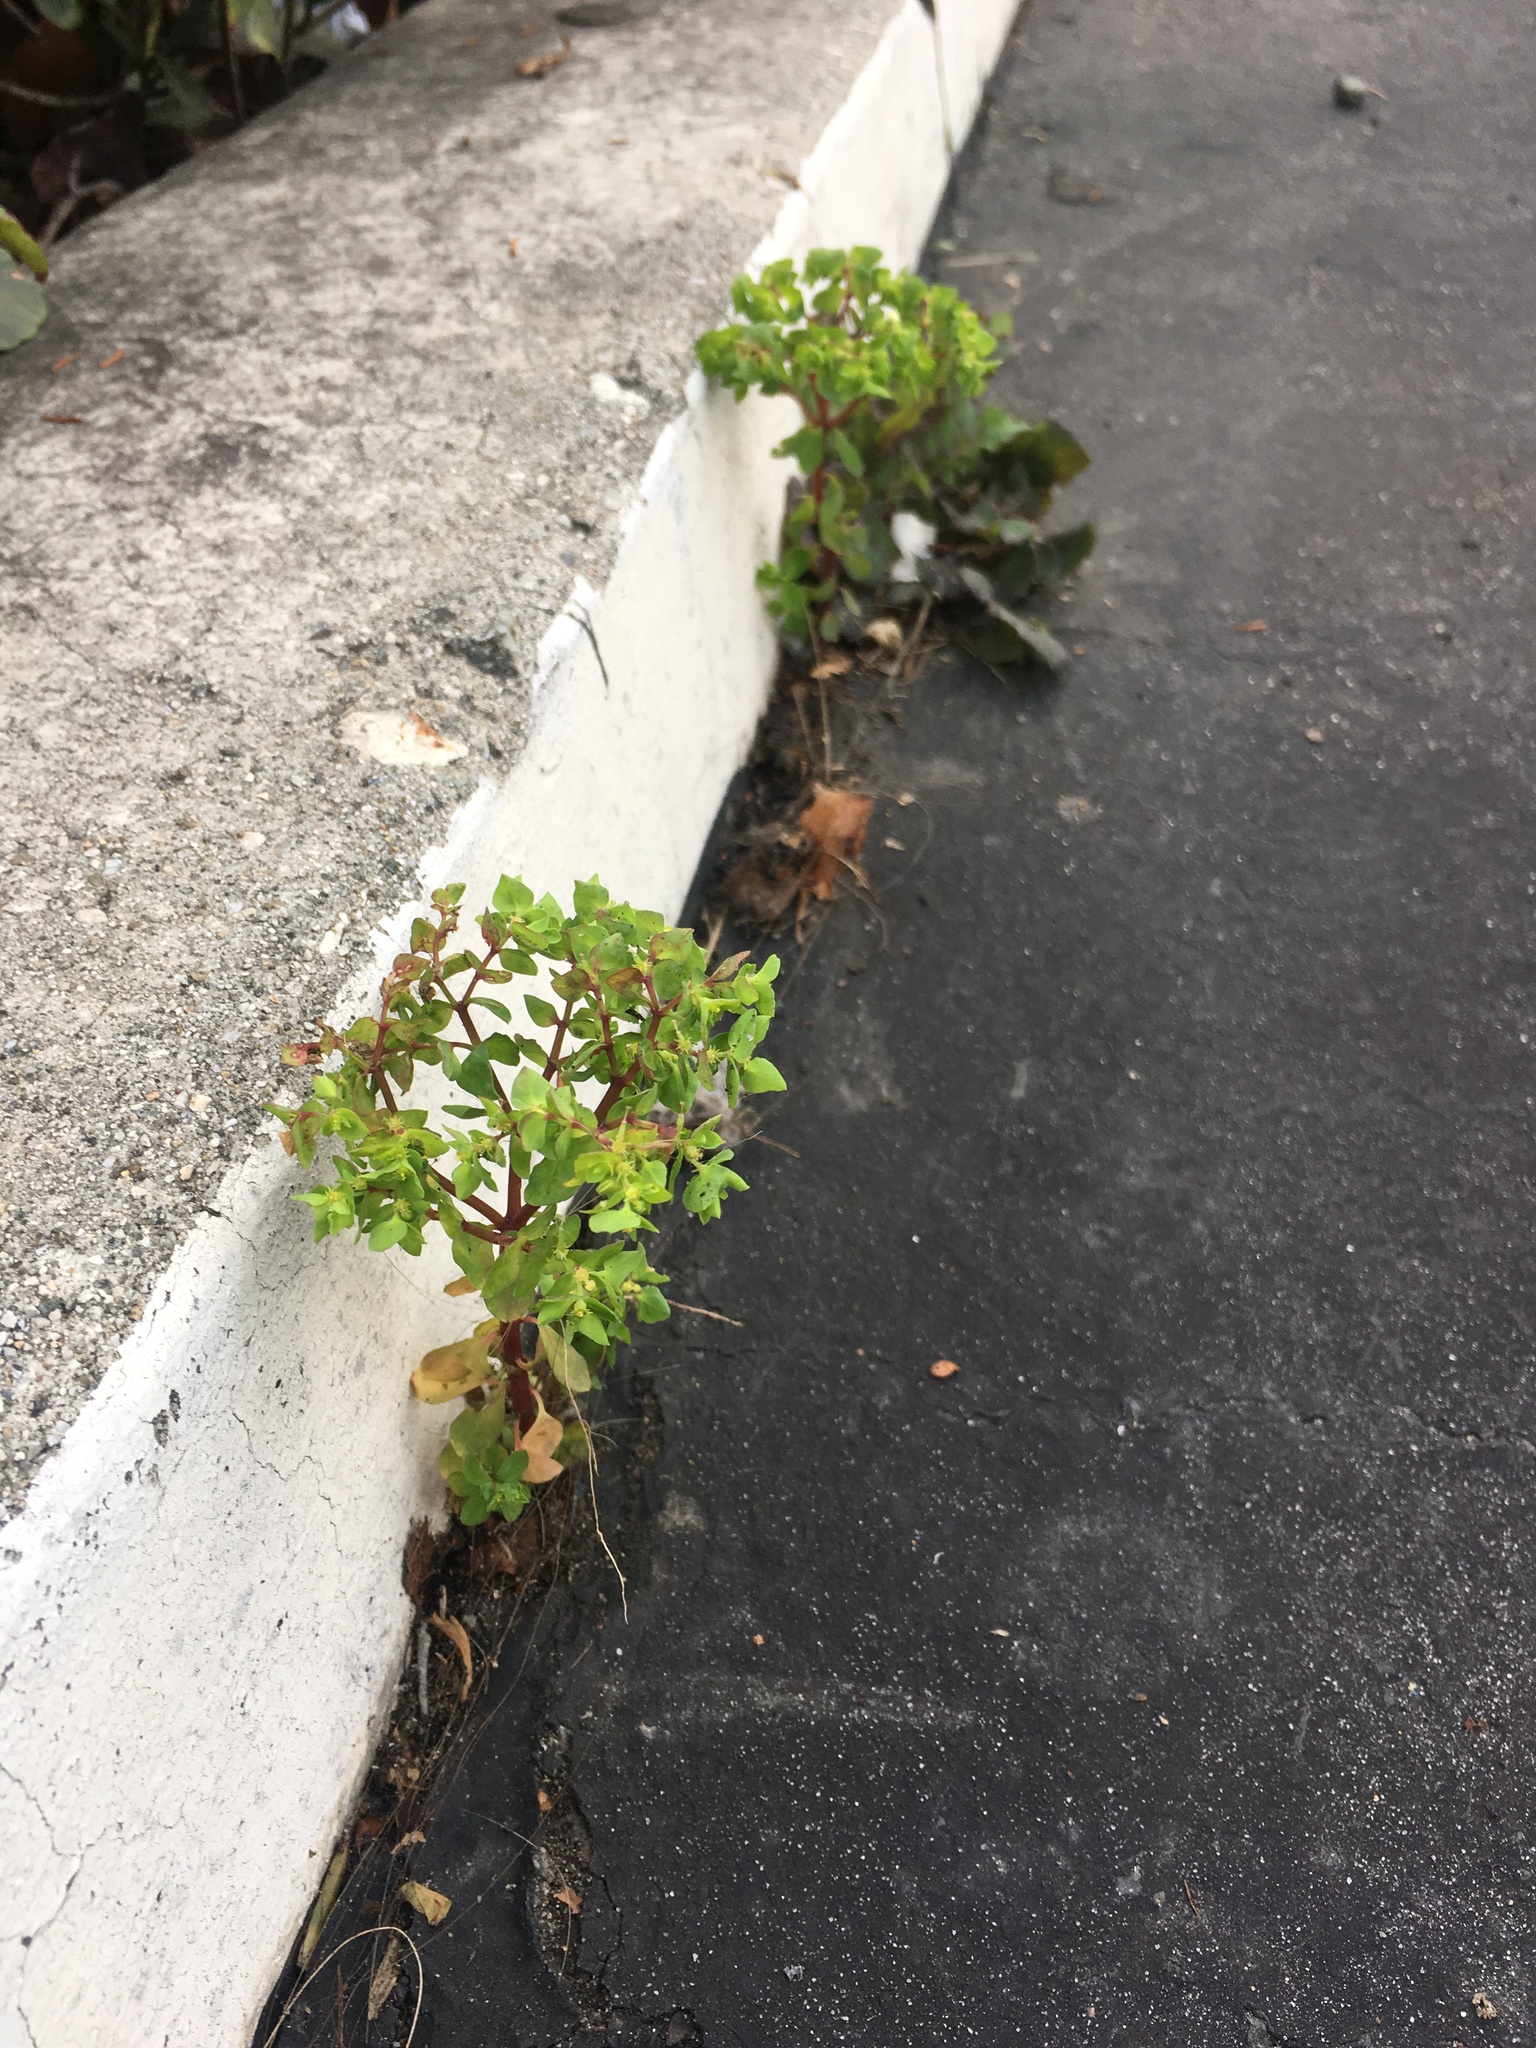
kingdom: Plantae
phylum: Tracheophyta
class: Magnoliopsida
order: Malpighiales
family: Euphorbiaceae
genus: Euphorbia
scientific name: Euphorbia peplus
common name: Petty spurge
